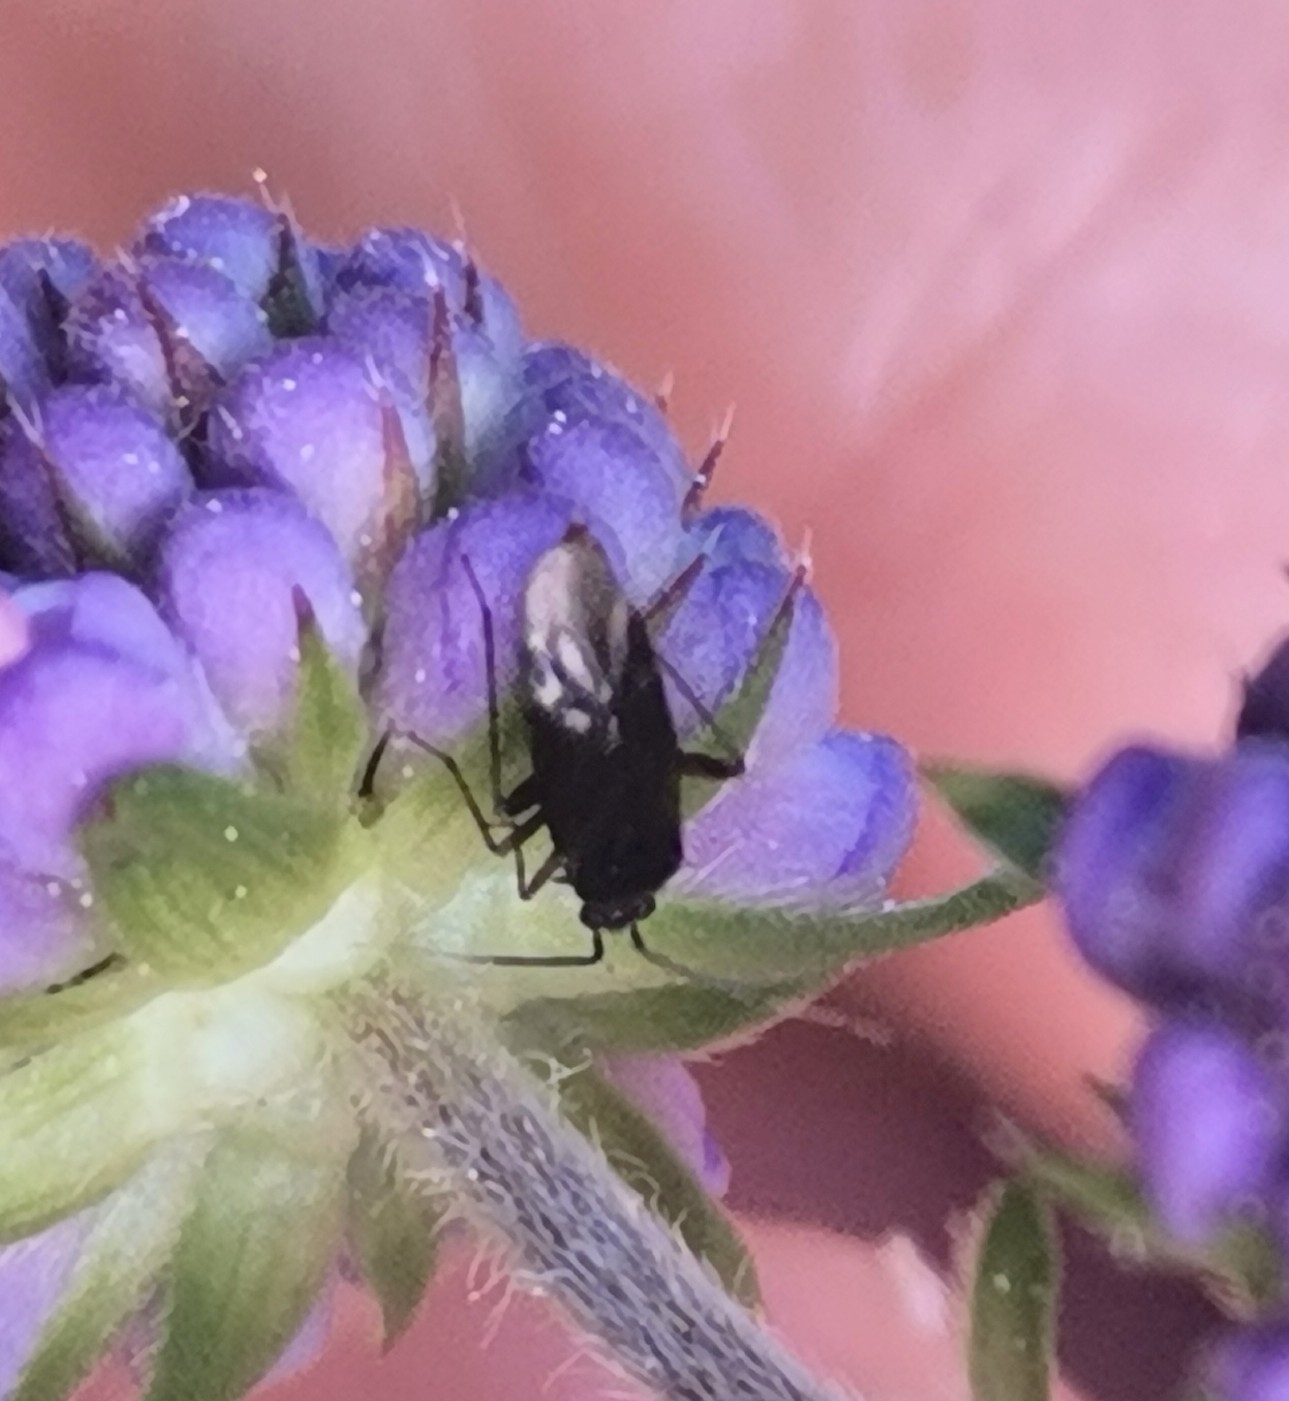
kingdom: Animalia
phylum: Arthropoda
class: Insecta
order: Hemiptera
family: Miridae
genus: Plagiognathus
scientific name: Plagiognathus arbustorum
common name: Plant bug
